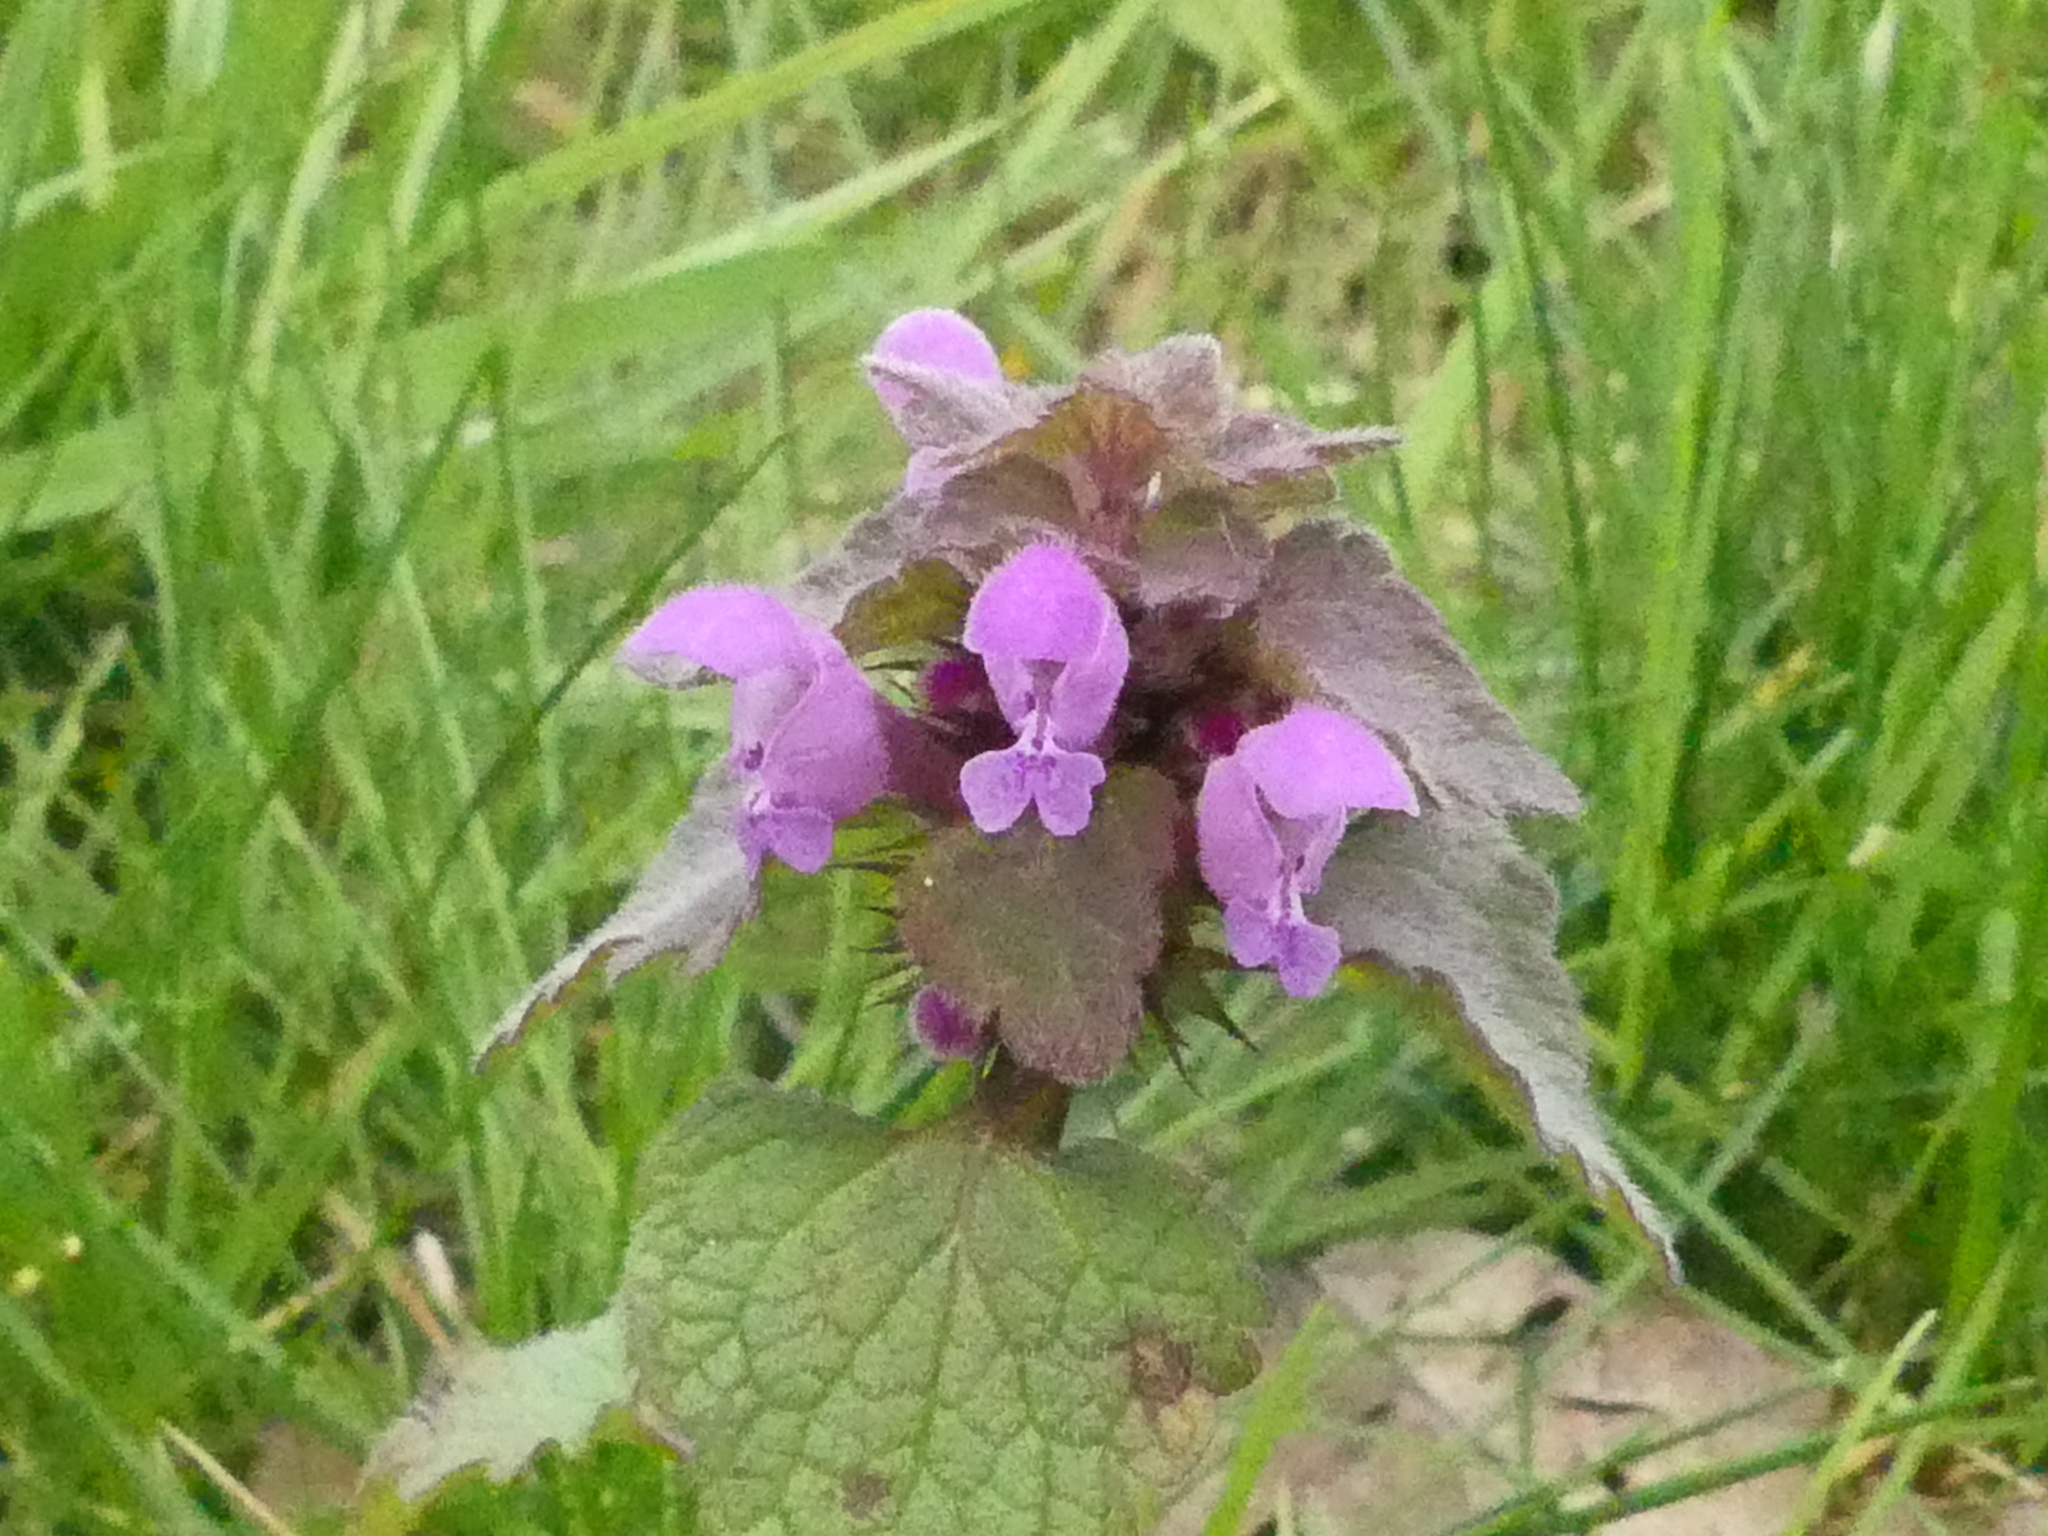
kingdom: Plantae
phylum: Tracheophyta
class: Magnoliopsida
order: Lamiales
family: Lamiaceae
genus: Lamium
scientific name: Lamium purpureum
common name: Red dead-nettle
